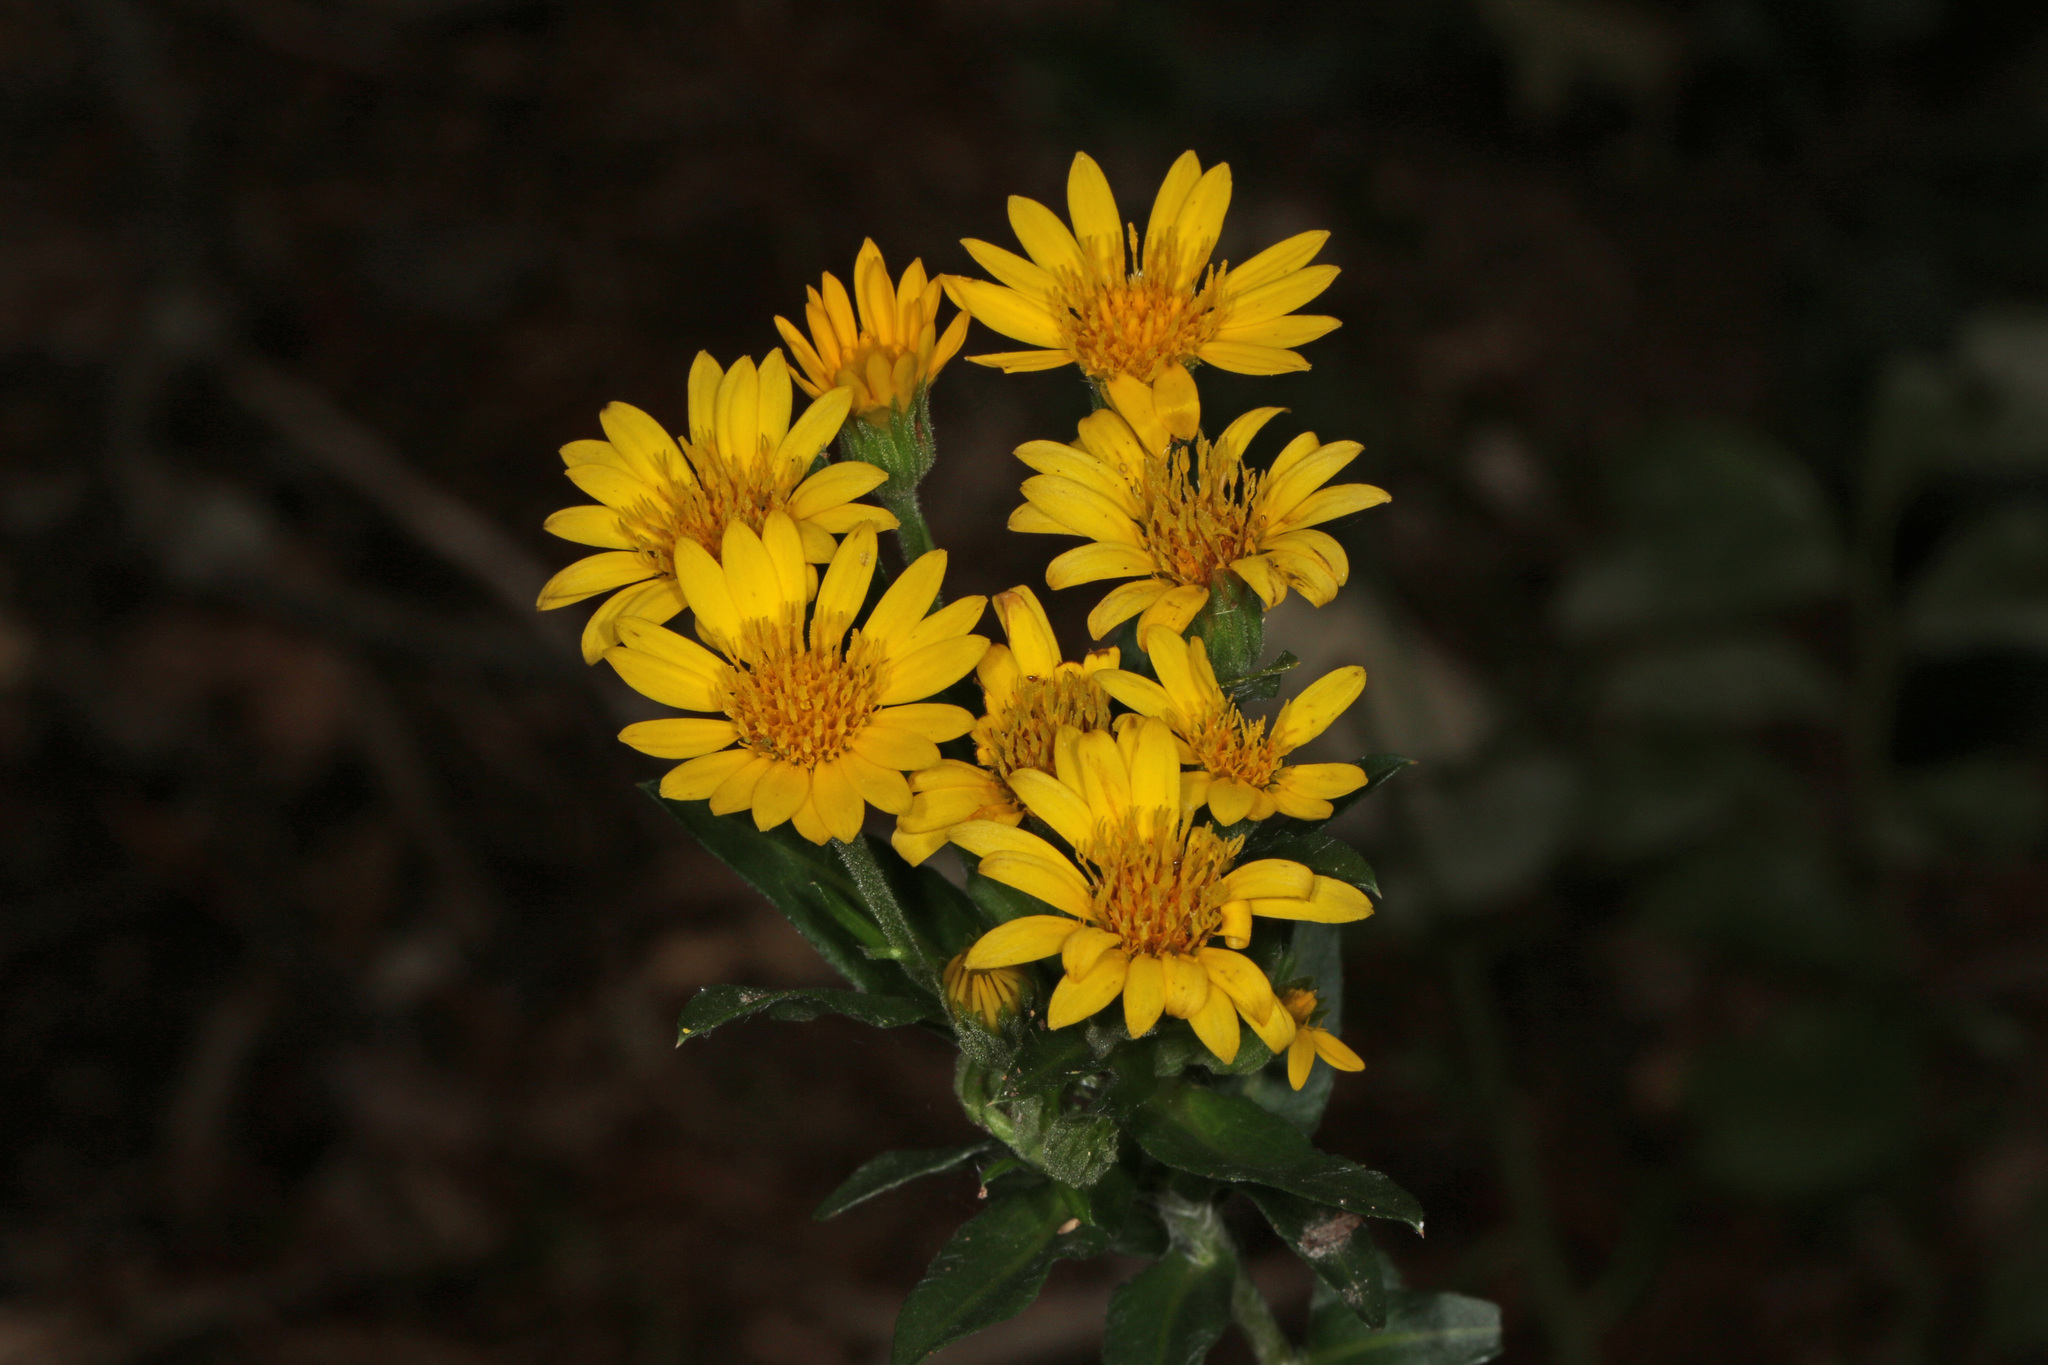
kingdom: Plantae
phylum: Tracheophyta
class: Magnoliopsida
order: Asterales
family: Asteraceae
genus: Chrysopsis
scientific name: Chrysopsis mariana
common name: Maryland golden-aster
